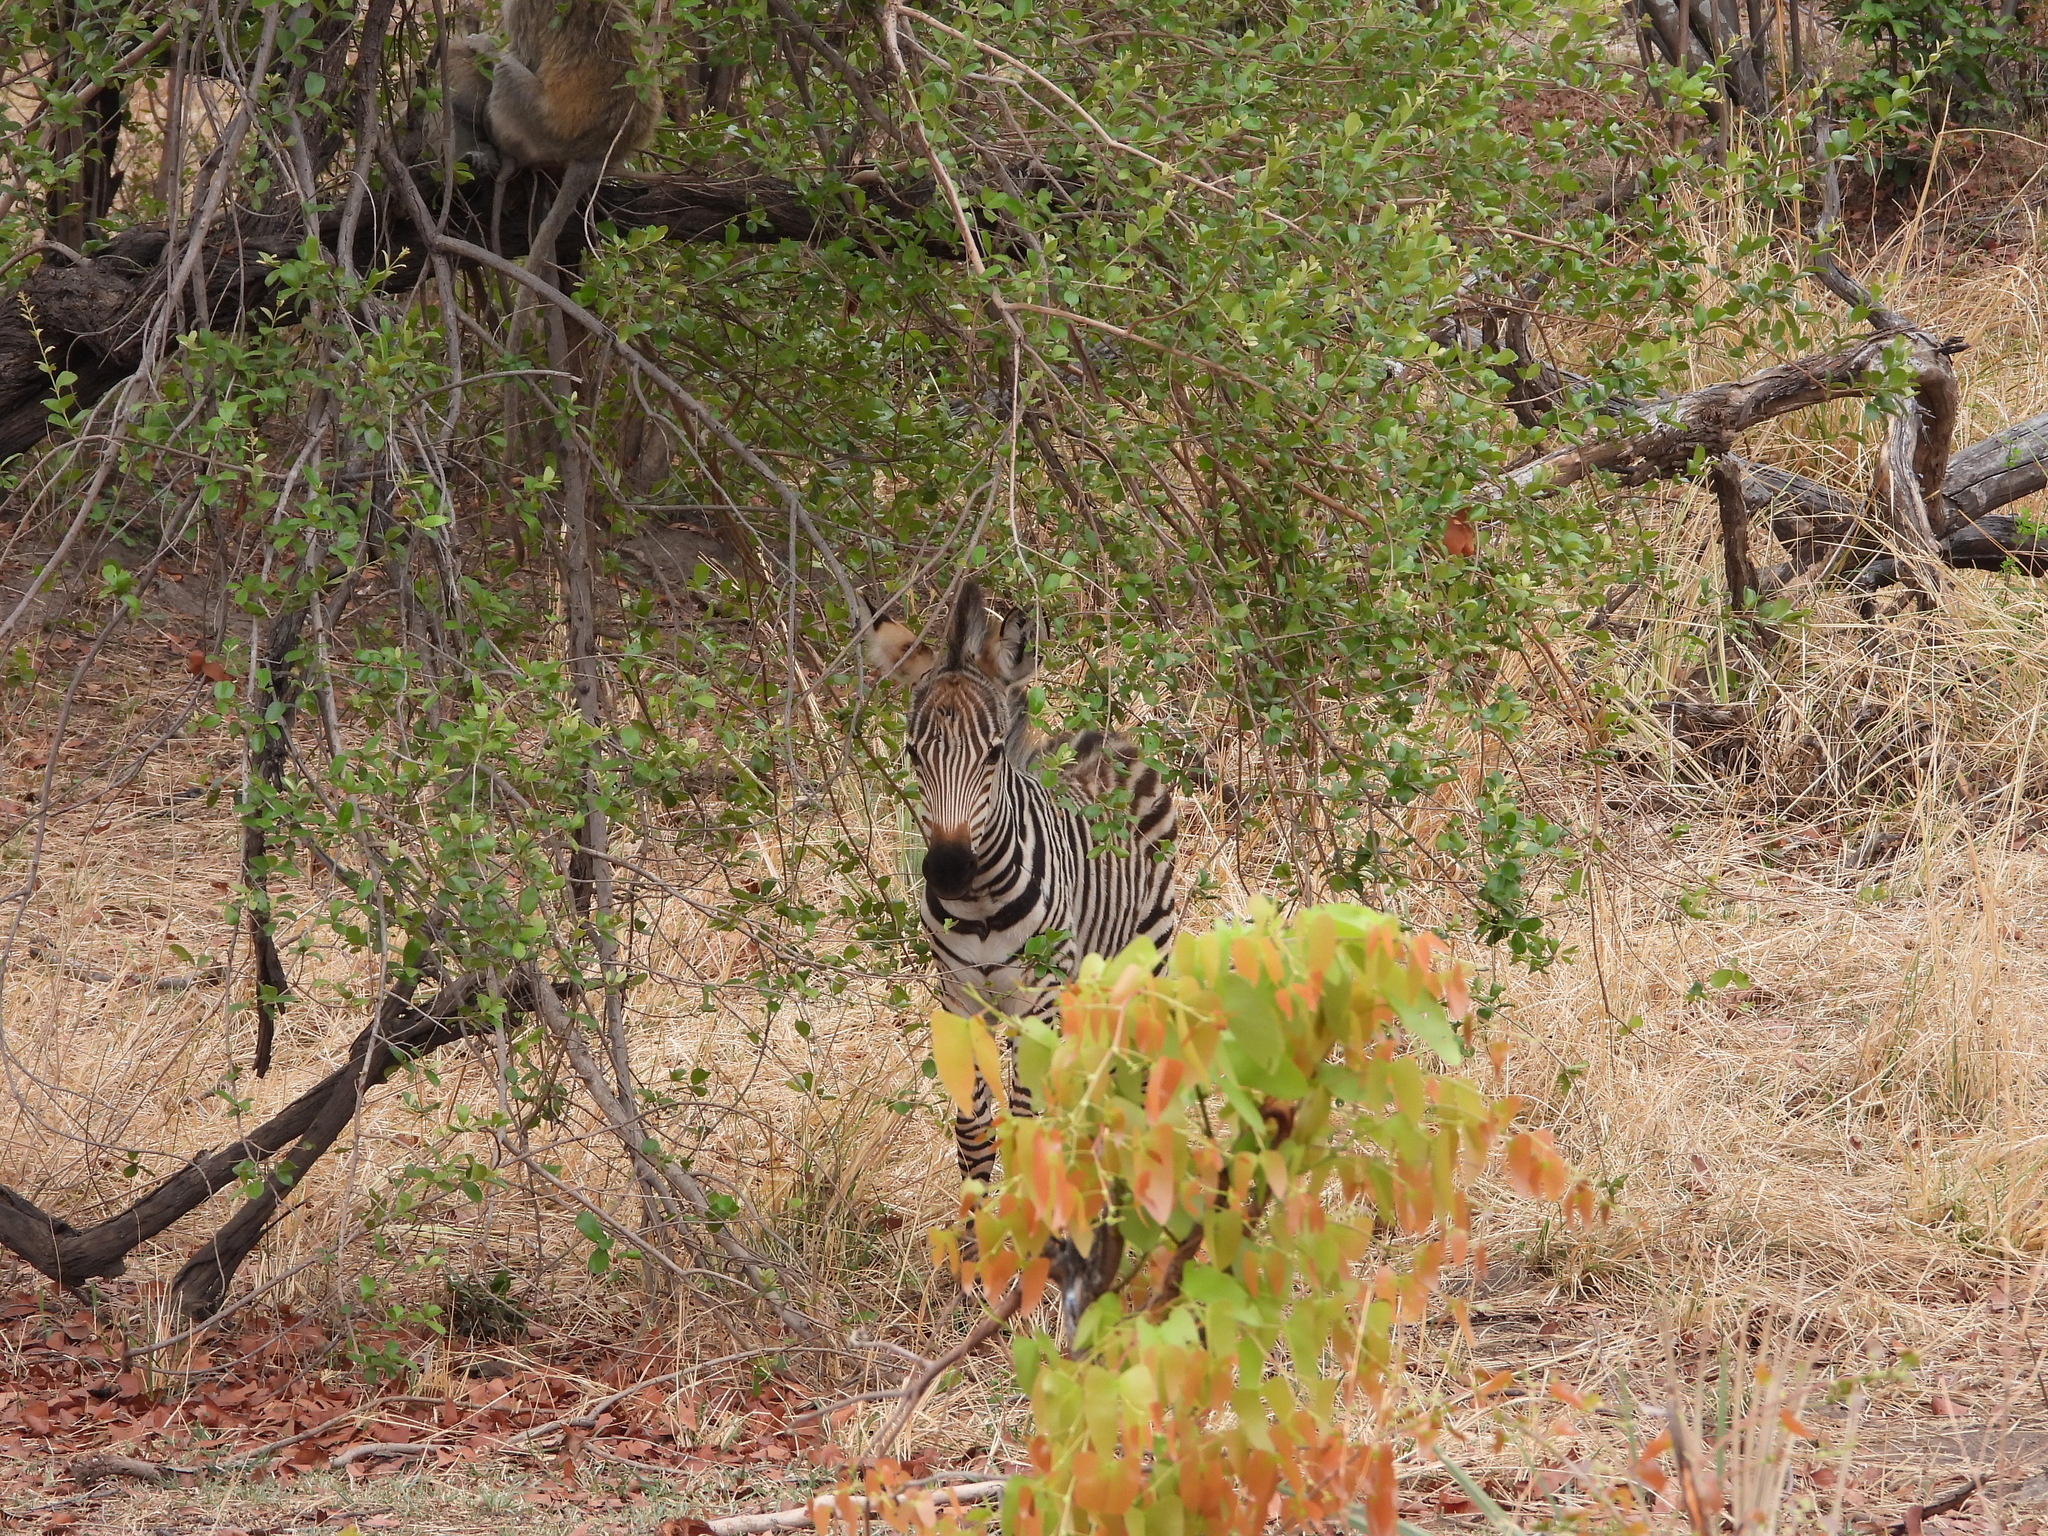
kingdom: Animalia
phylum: Chordata
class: Mammalia
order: Perissodactyla
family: Equidae
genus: Equus
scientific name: Equus quagga
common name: Plains zebra
